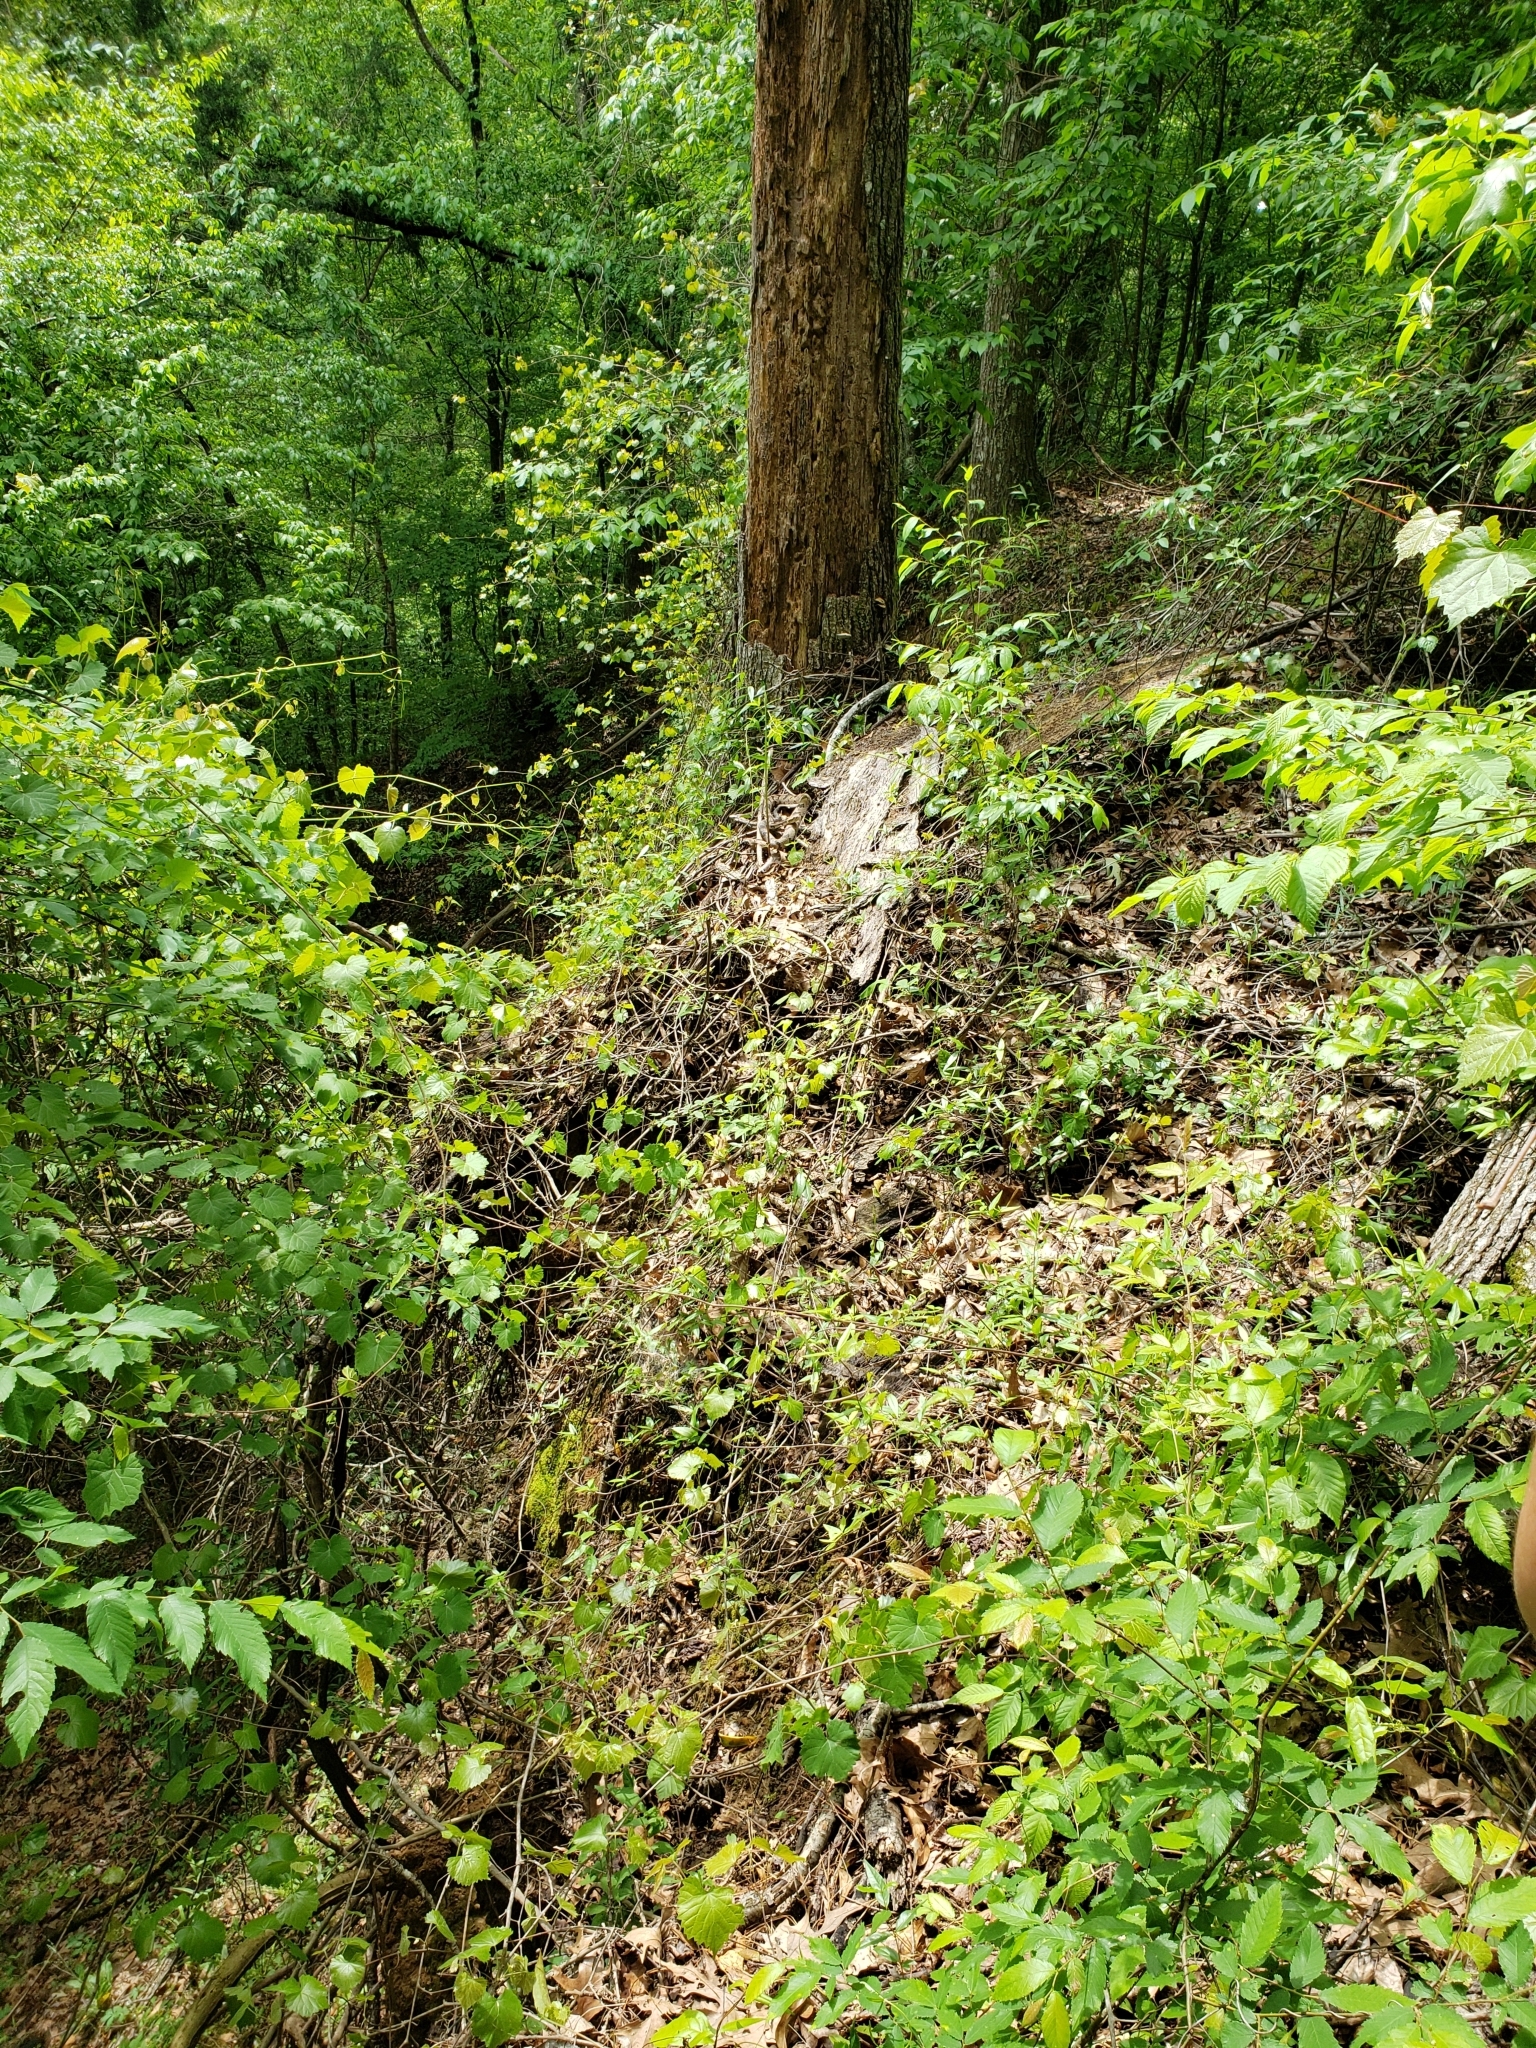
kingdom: Animalia
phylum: Chordata
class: Squamata
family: Viperidae
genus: Crotalus
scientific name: Crotalus horridus
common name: Timber rattlesnake
